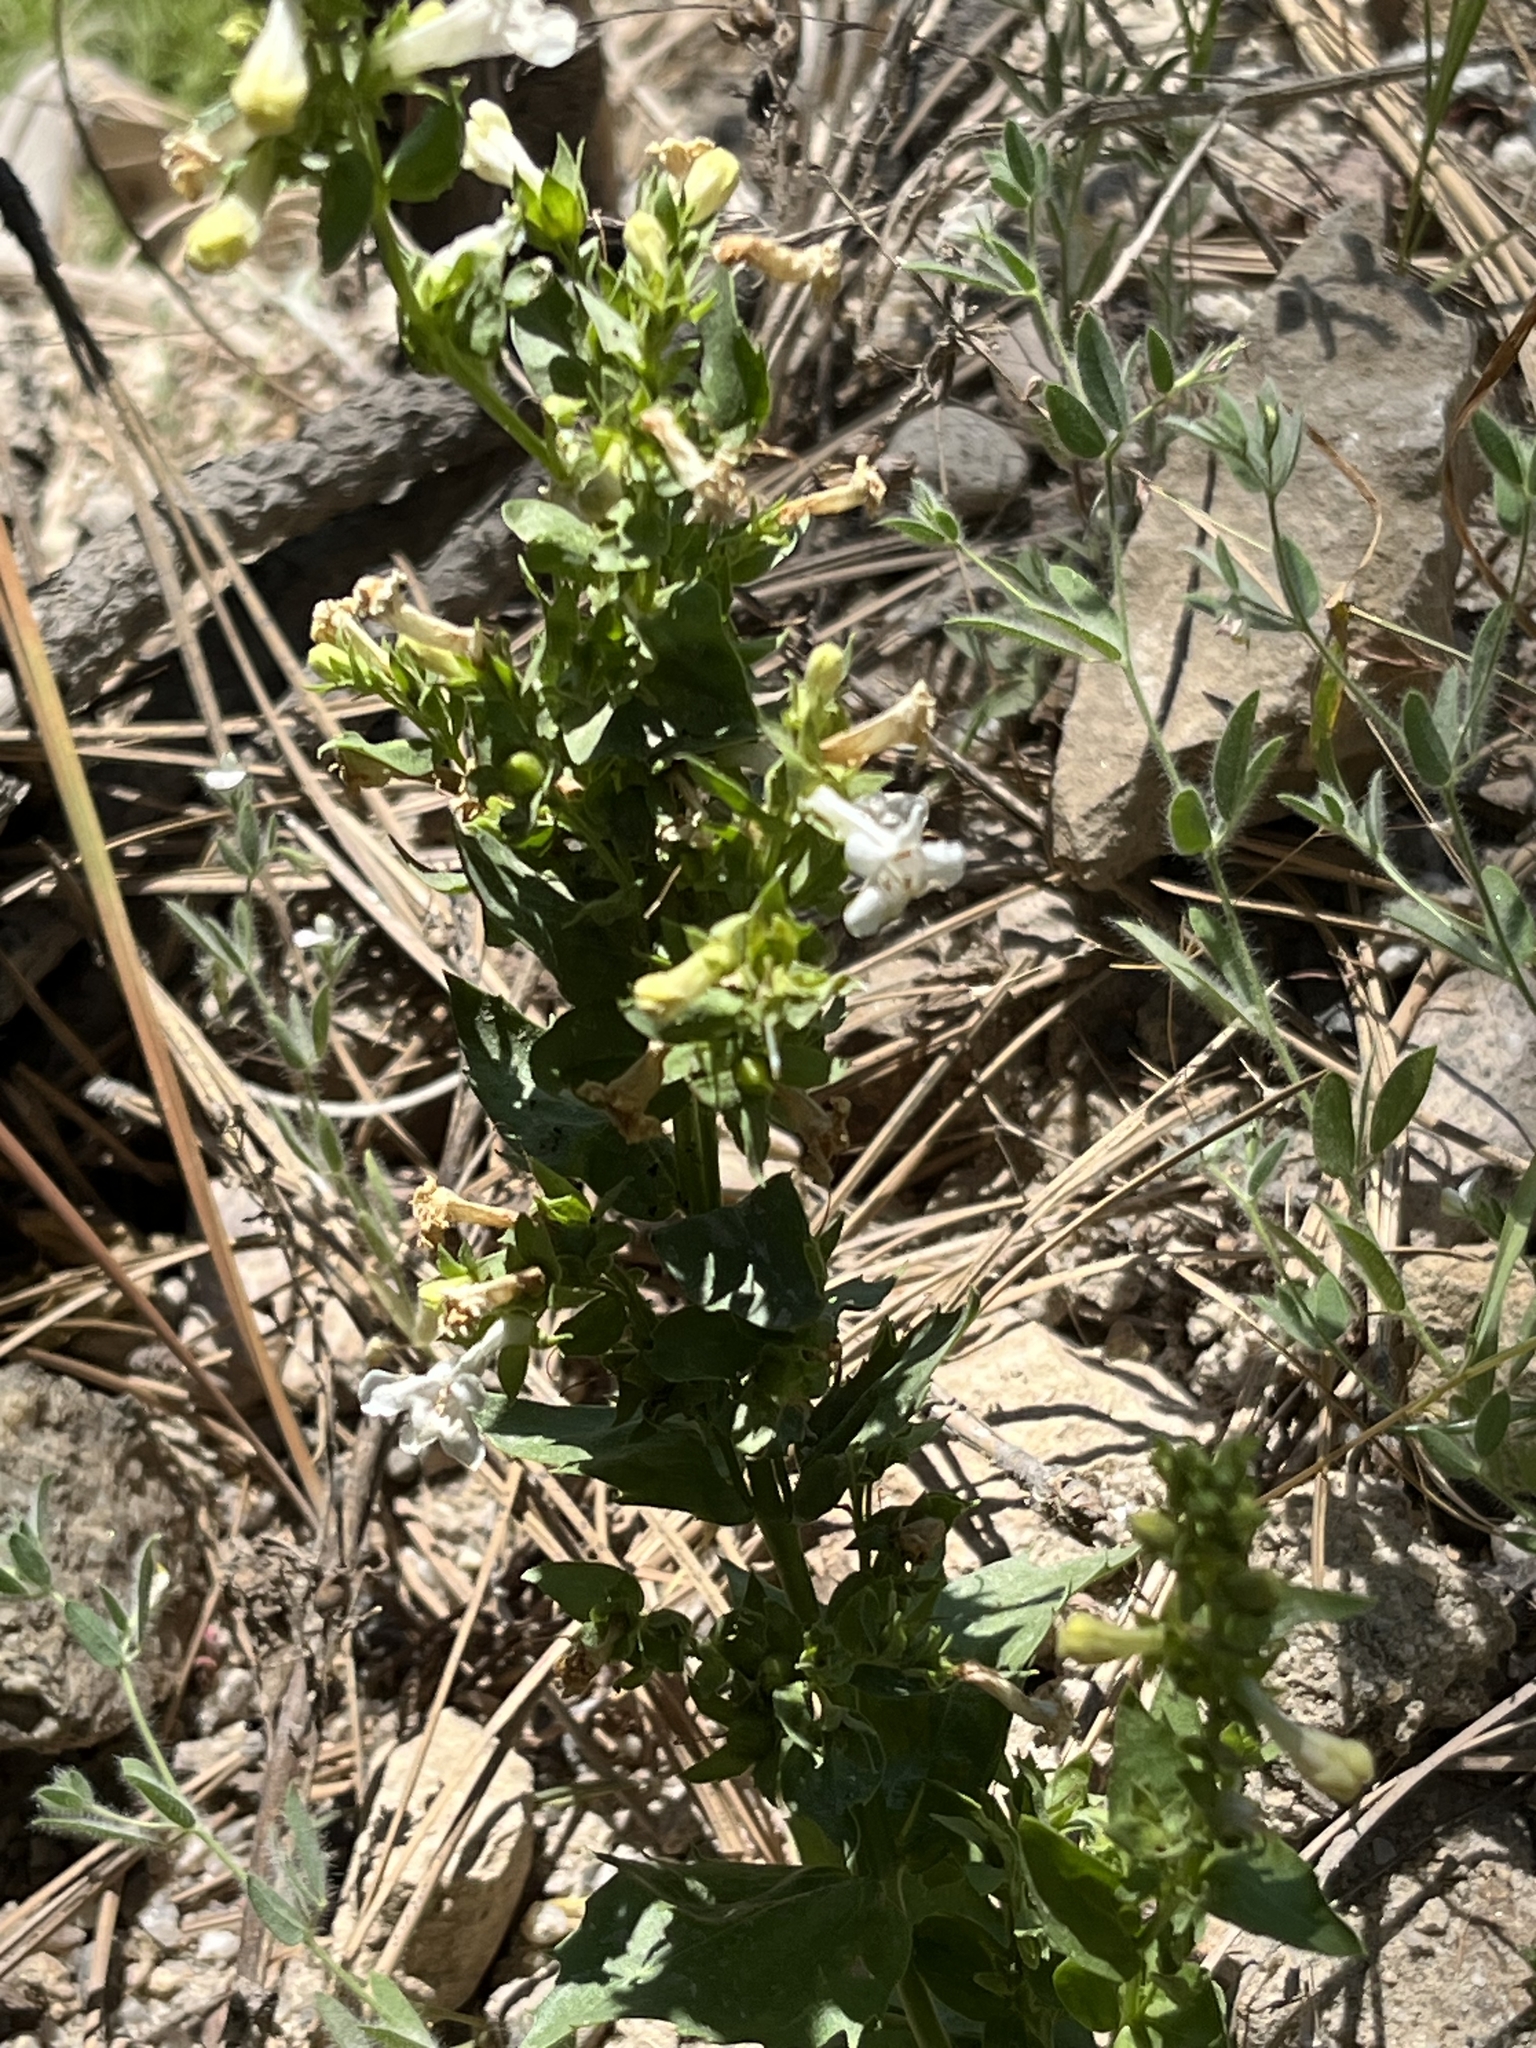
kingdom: Plantae
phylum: Tracheophyta
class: Magnoliopsida
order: Lamiales
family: Plantaginaceae
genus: Penstemon
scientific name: Penstemon deustus
